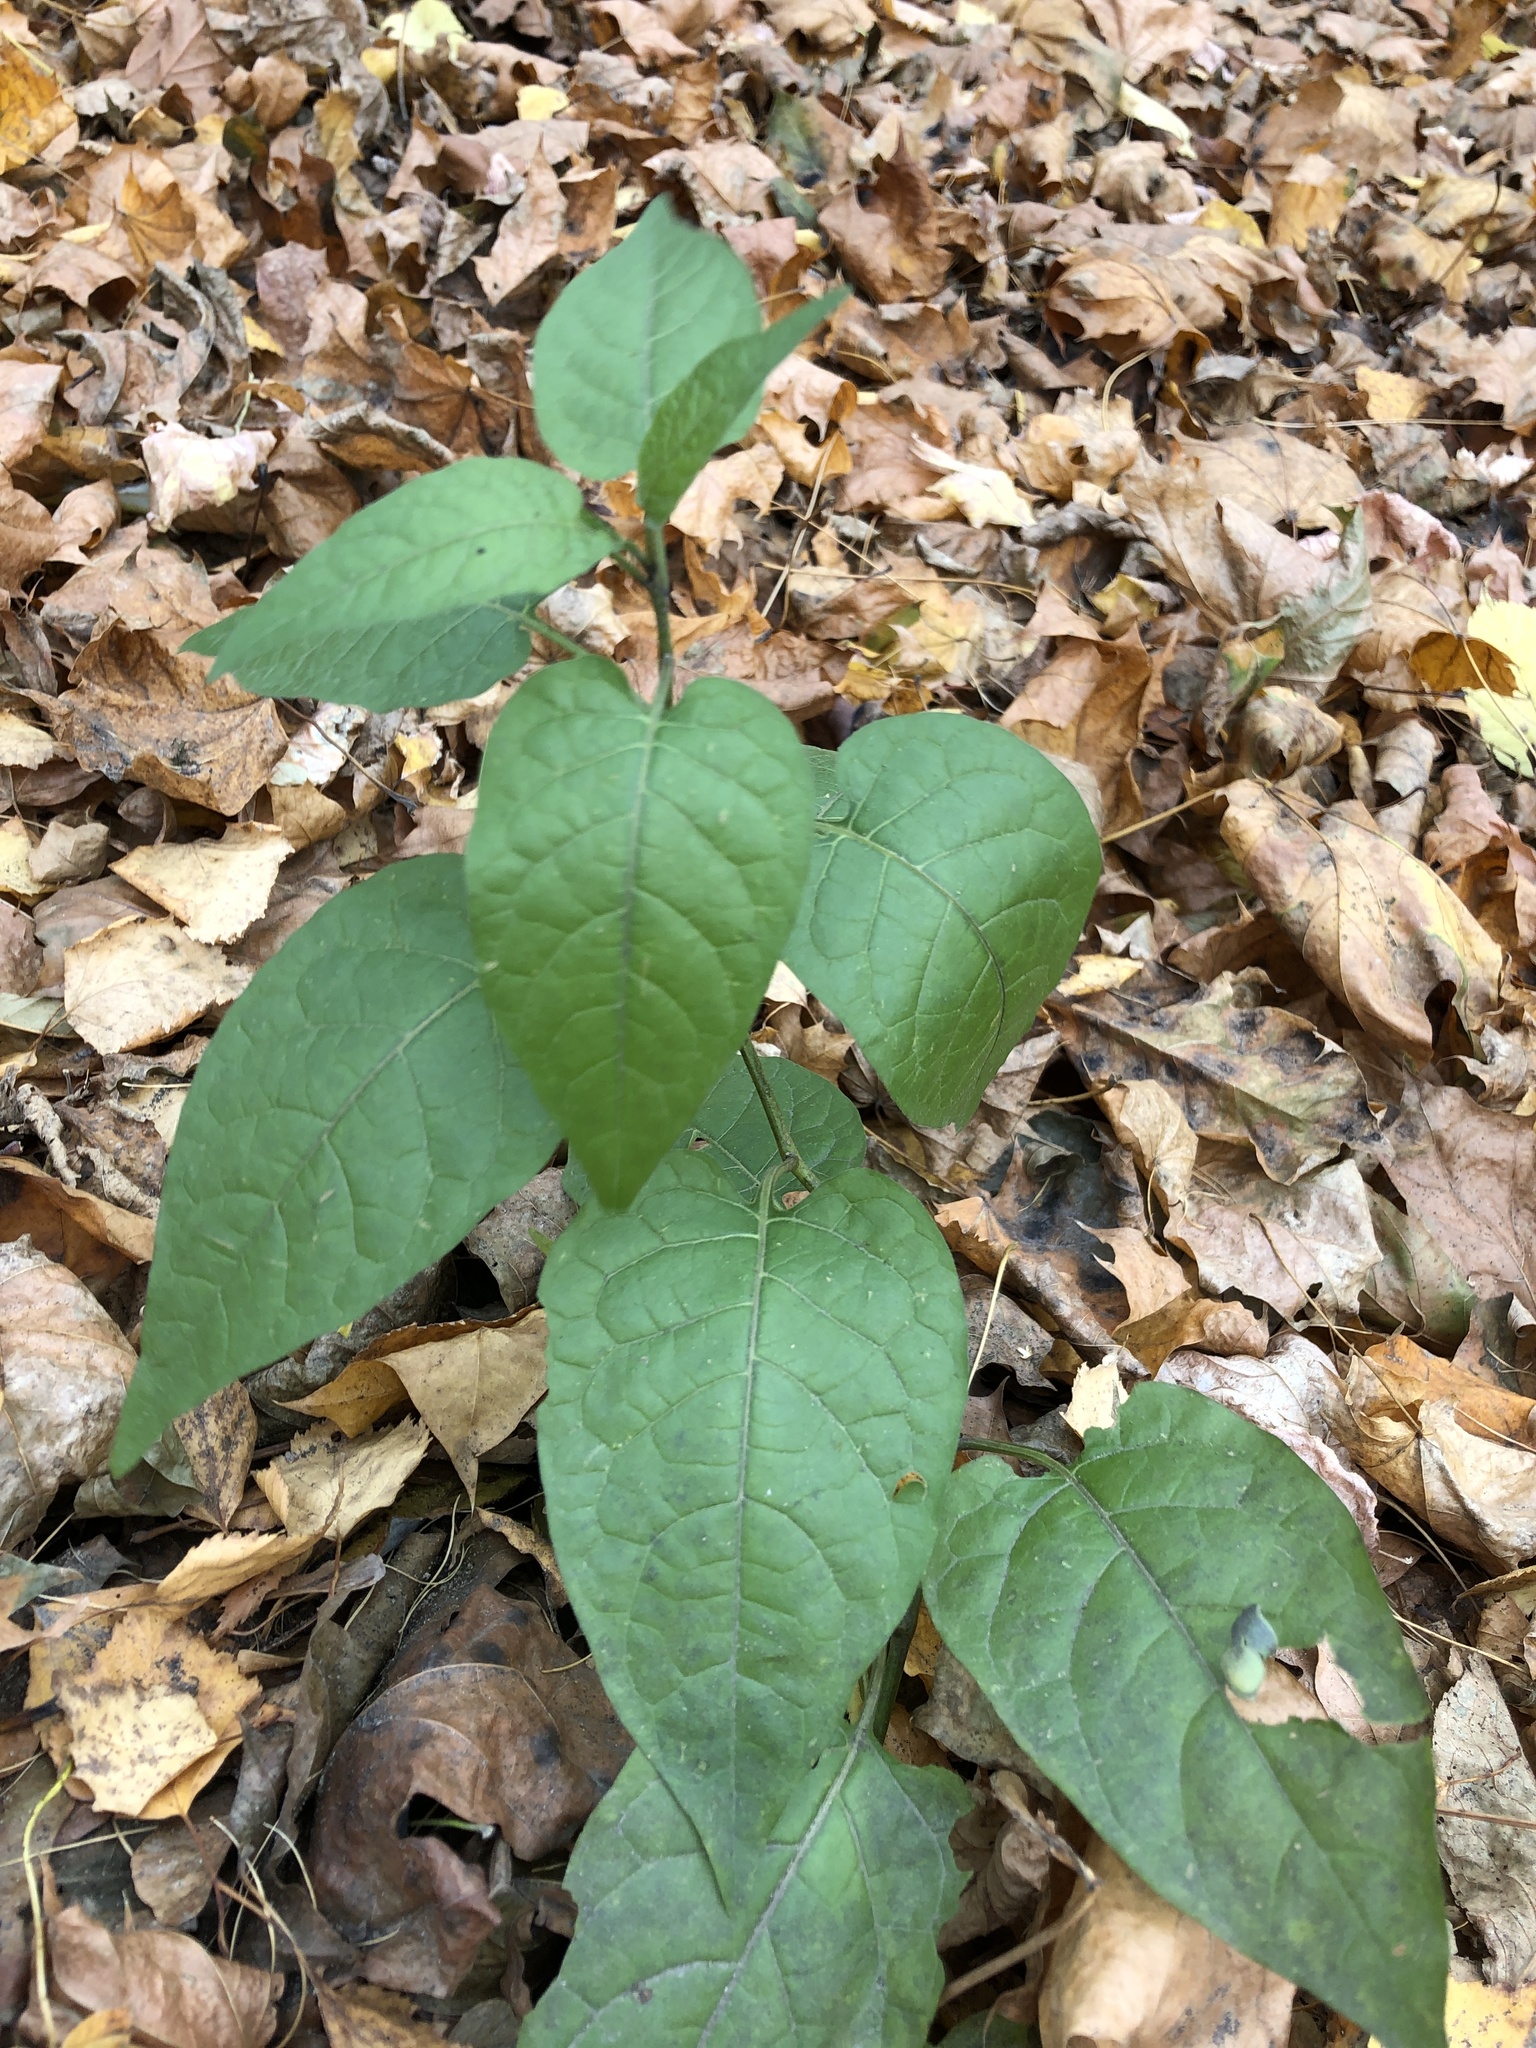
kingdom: Plantae
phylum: Tracheophyta
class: Magnoliopsida
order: Solanales
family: Solanaceae
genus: Solanum
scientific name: Solanum dulcamara
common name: Climbing nightshade
